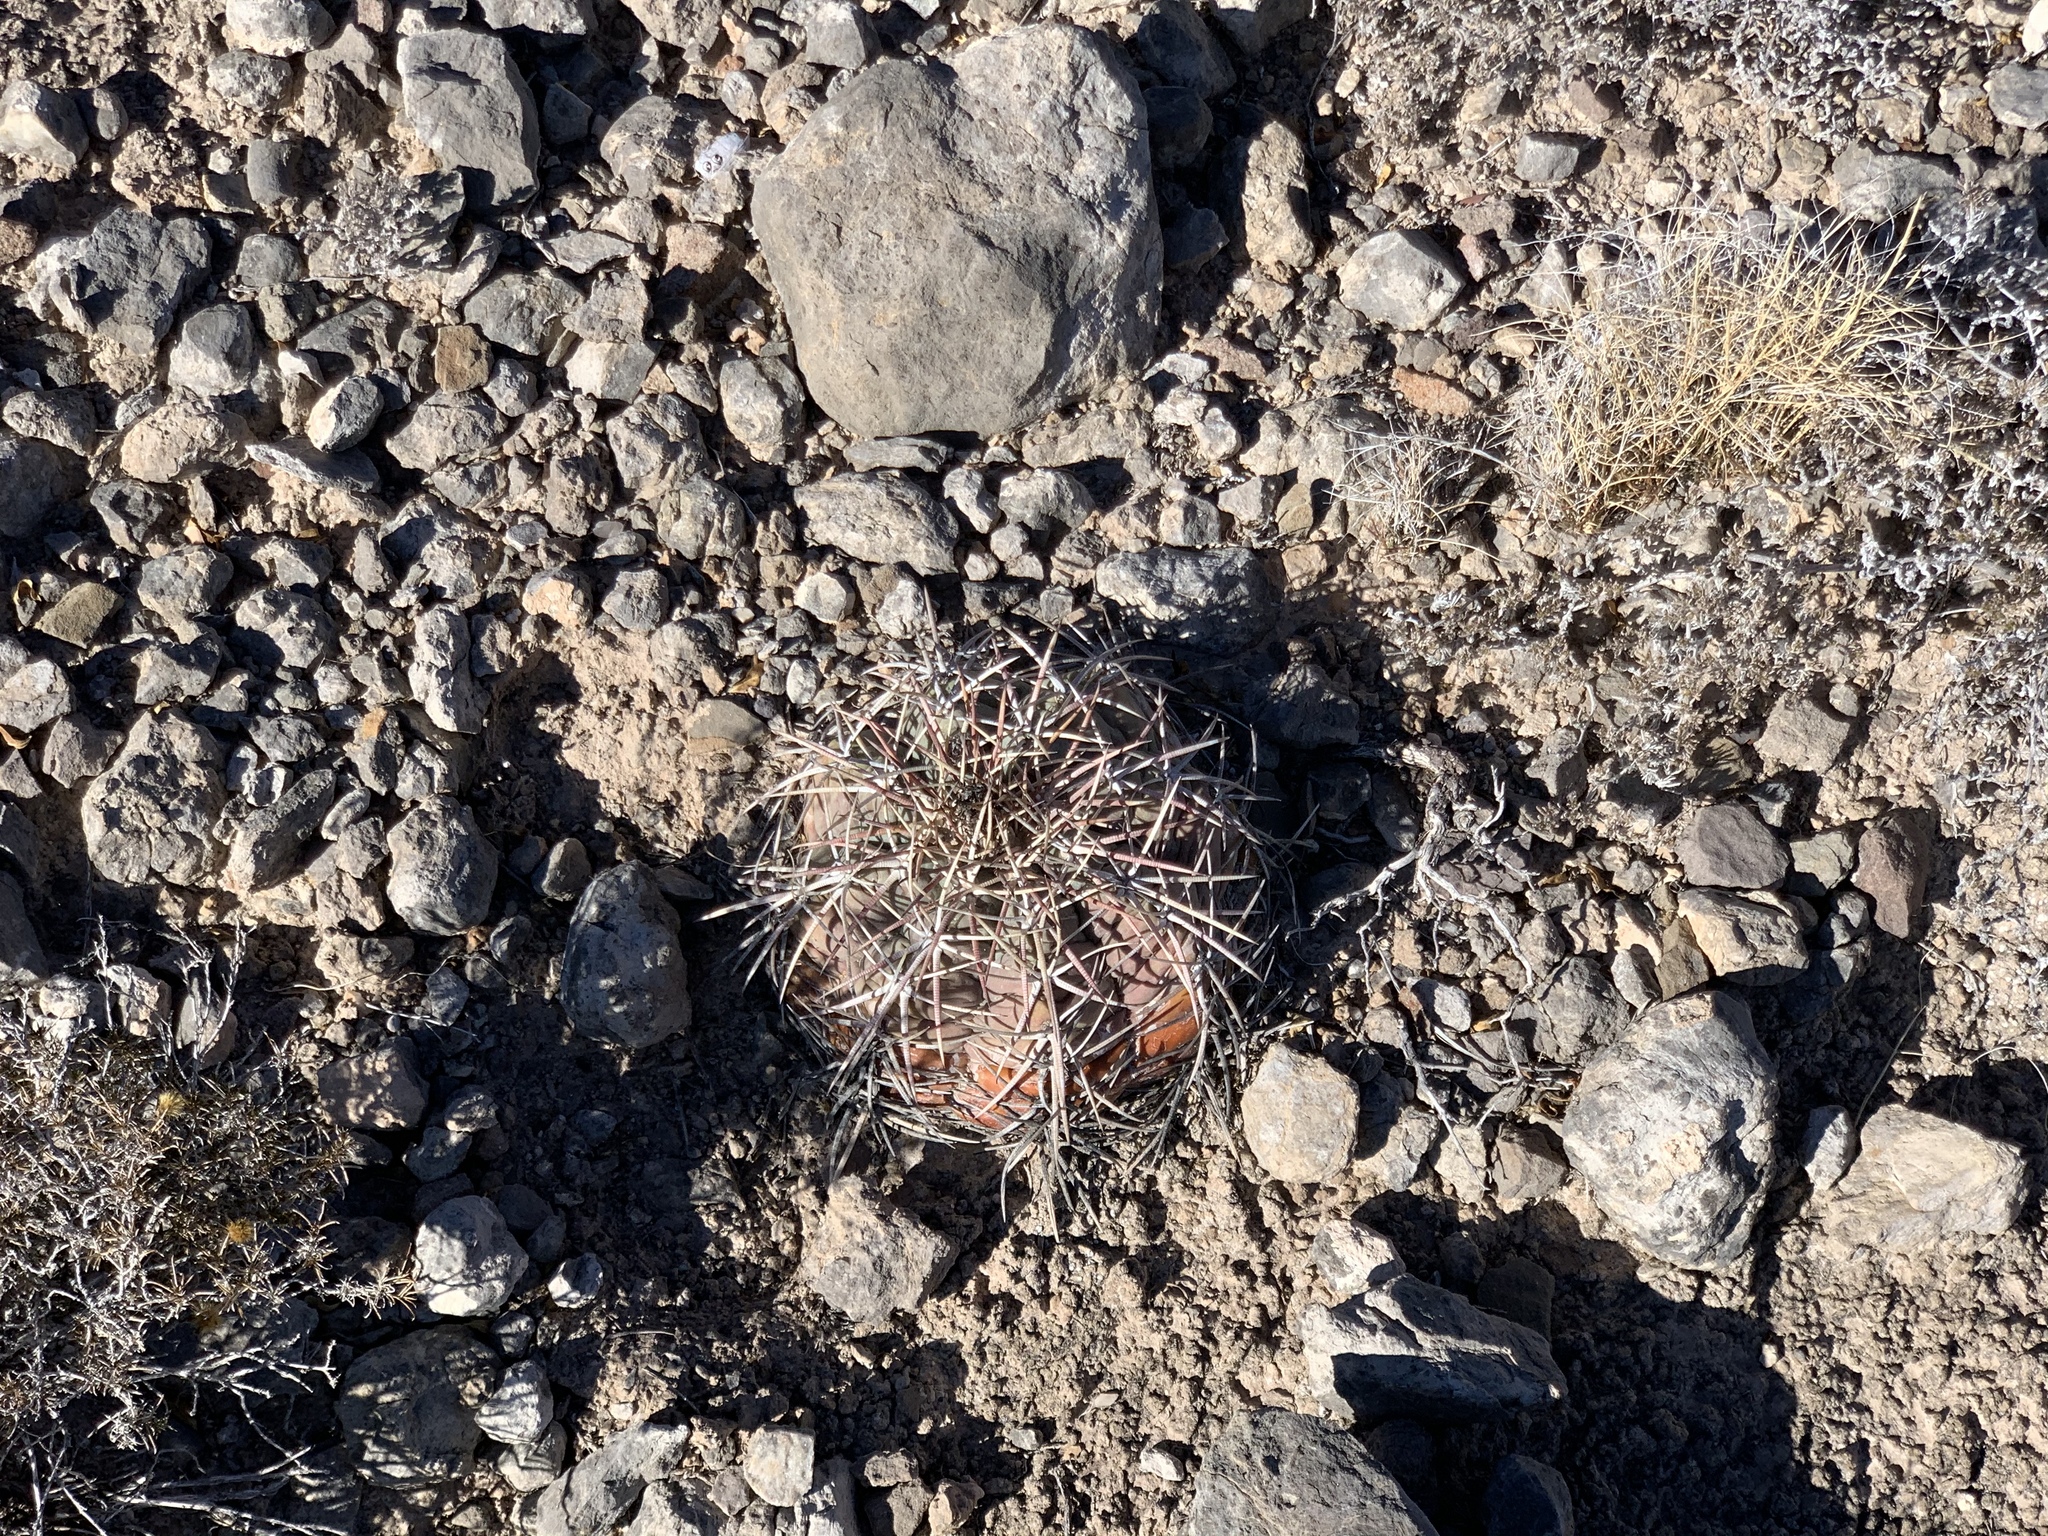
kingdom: Plantae
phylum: Tracheophyta
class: Magnoliopsida
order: Caryophyllales
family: Cactaceae
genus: Echinocactus
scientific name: Echinocactus horizonthalonius
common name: Devilshead
